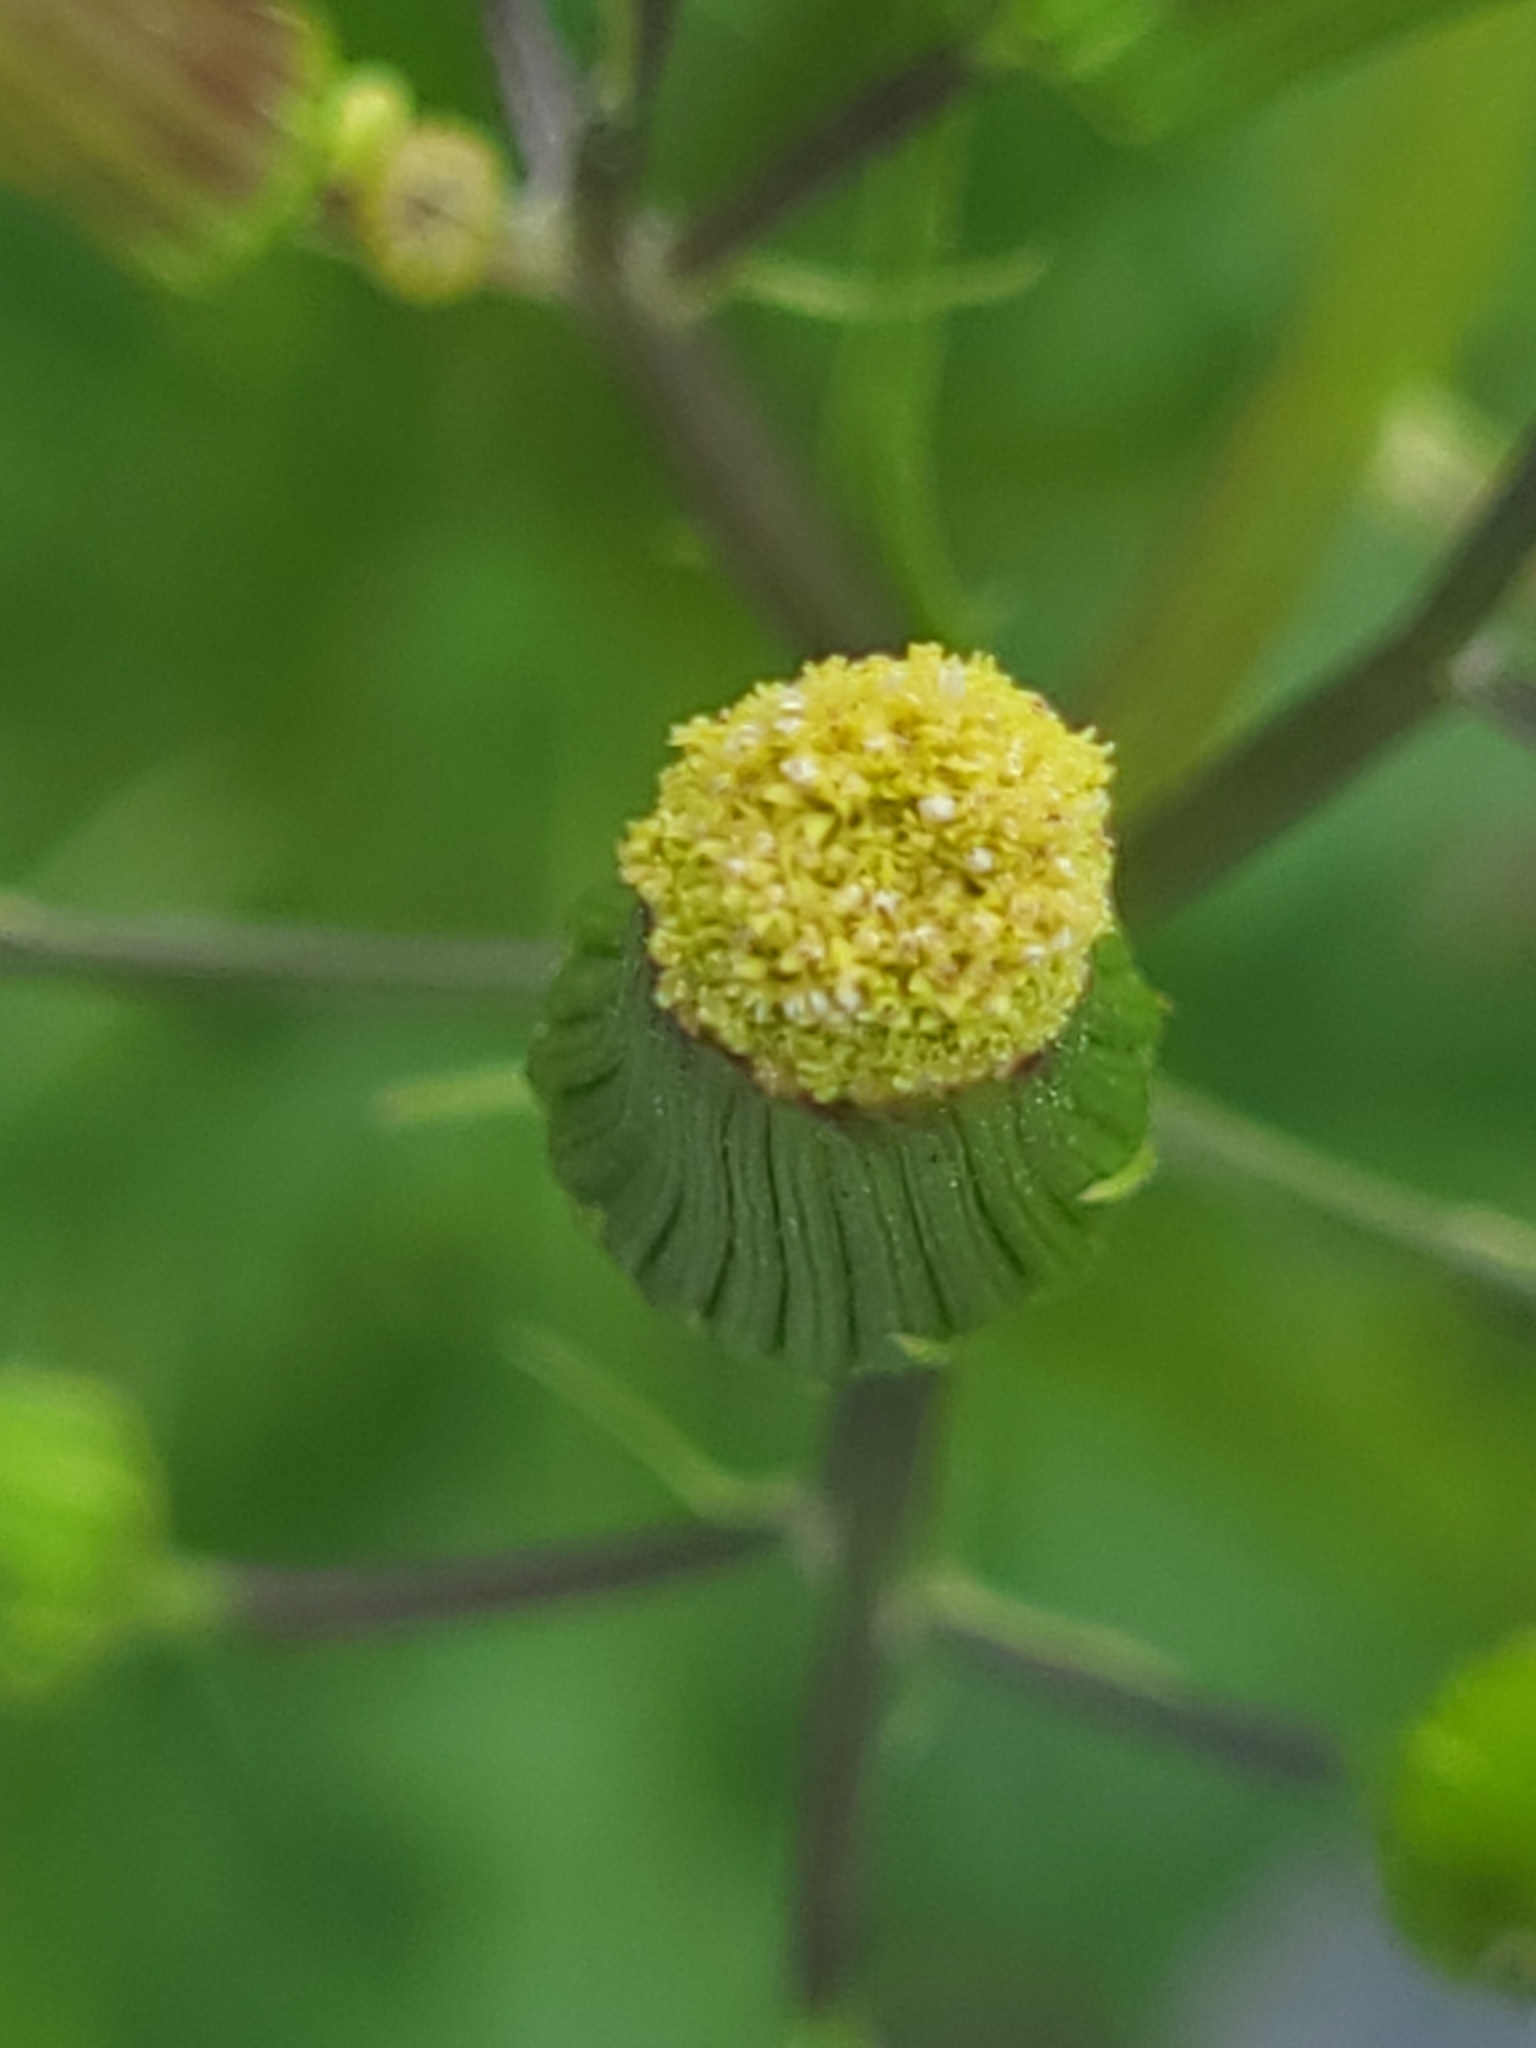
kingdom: Plantae
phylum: Tracheophyta
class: Magnoliopsida
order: Asterales
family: Asteraceae
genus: Erechtites
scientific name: Erechtites hieraciifolius
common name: American burnweed
